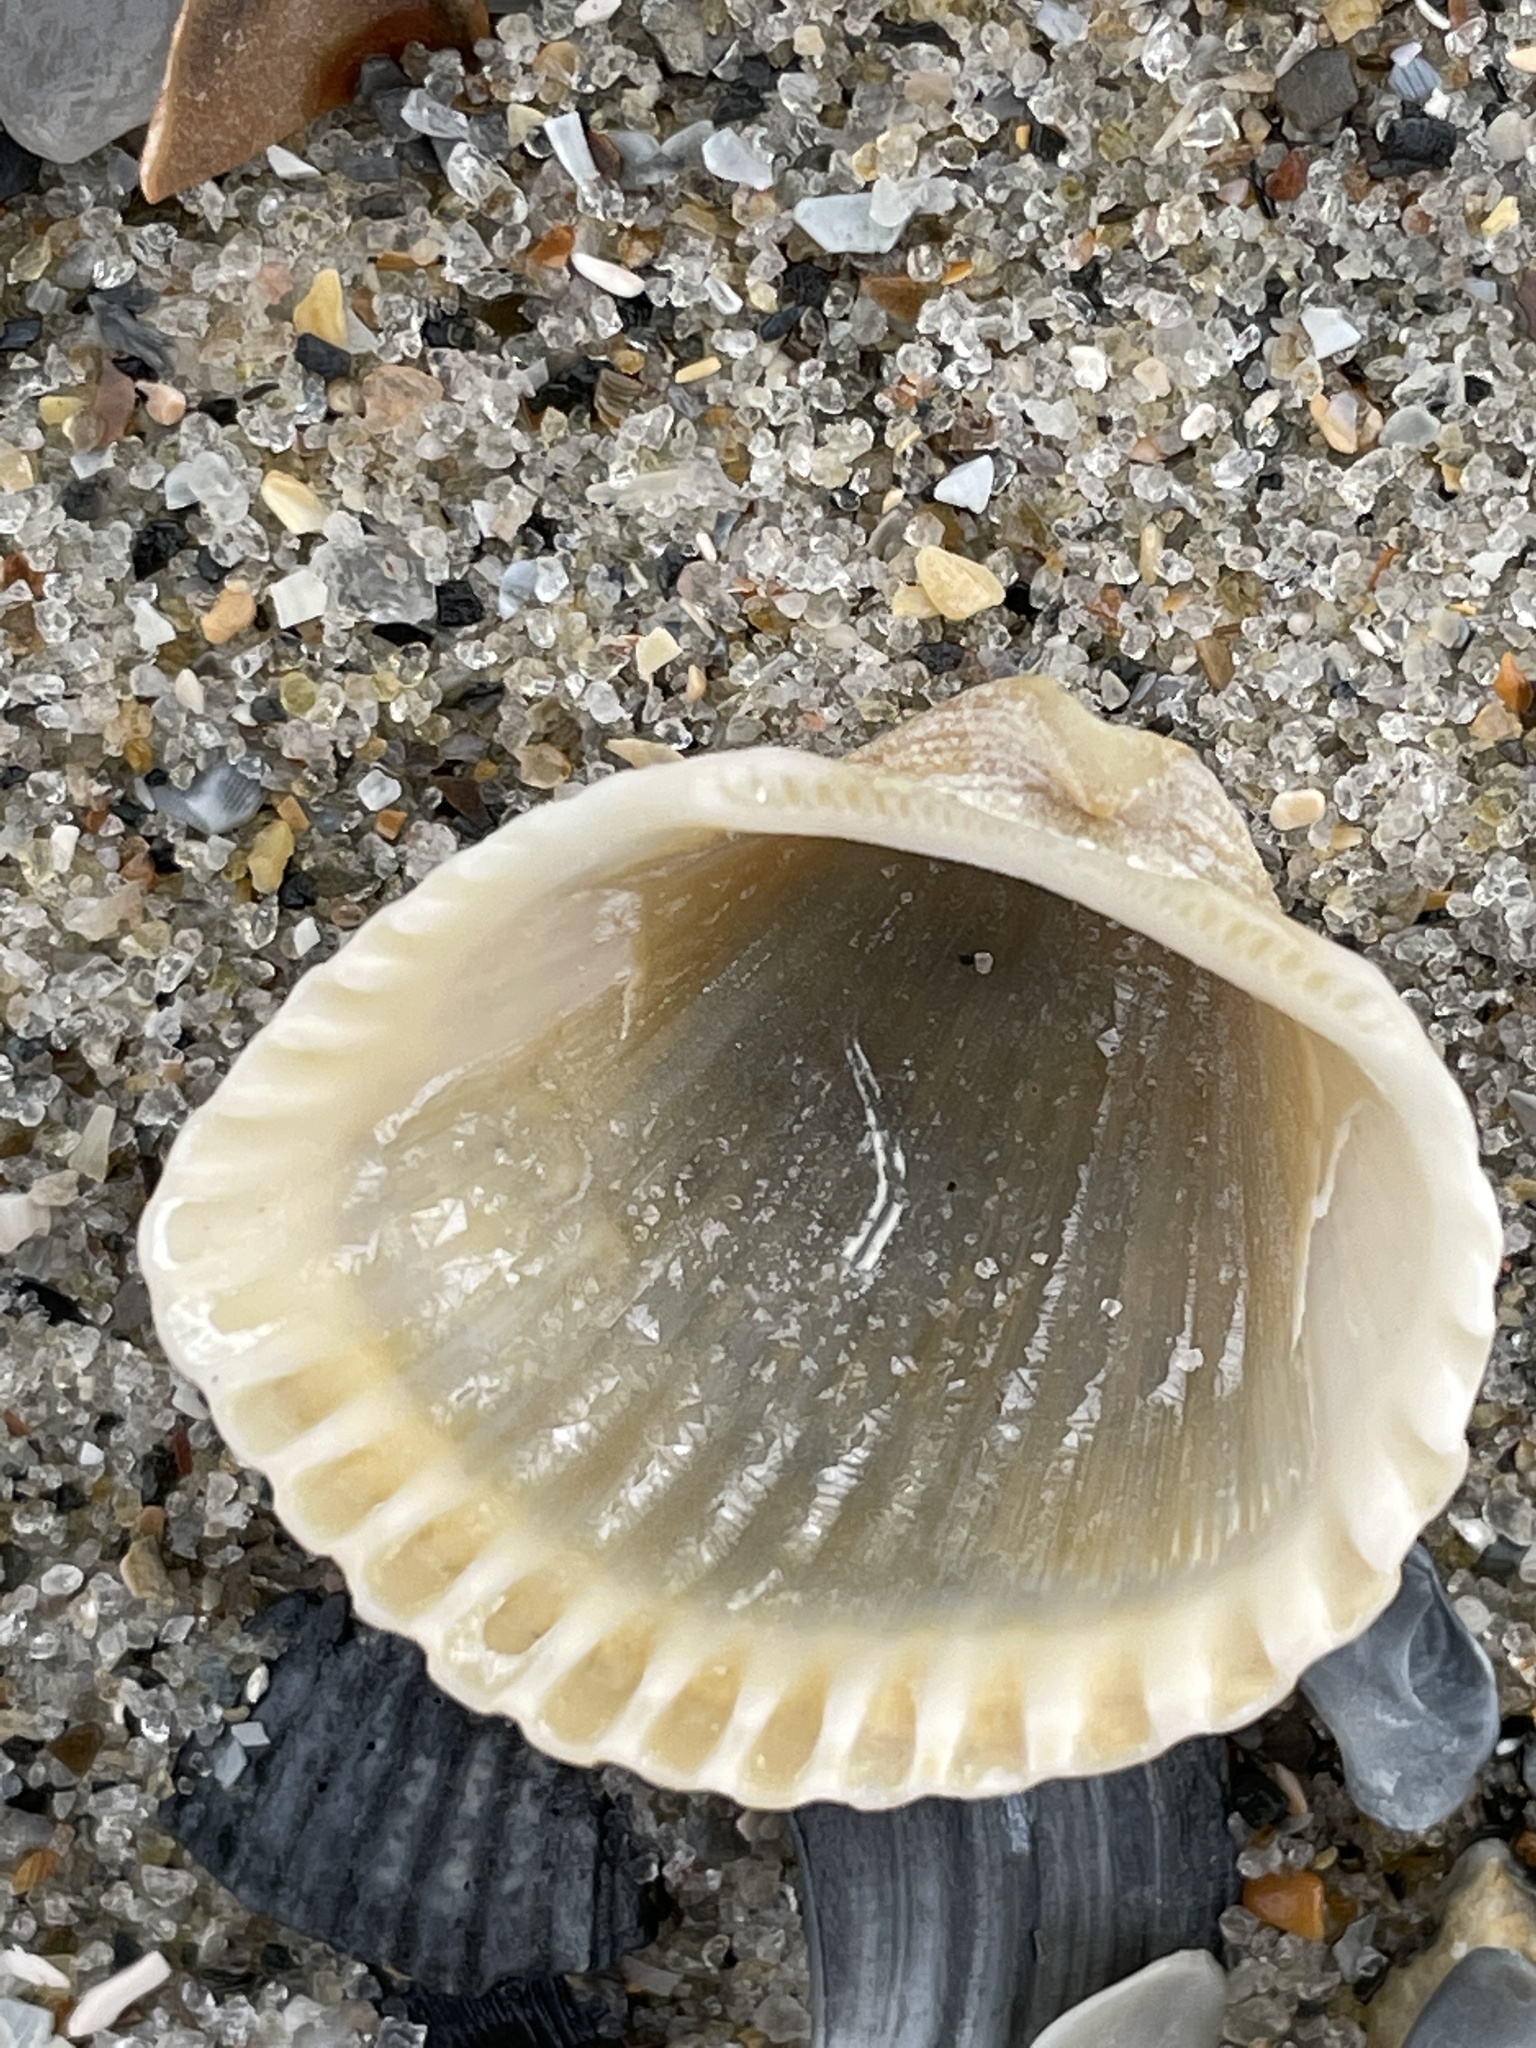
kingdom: Animalia
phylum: Mollusca
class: Bivalvia
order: Arcida
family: Arcidae
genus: Anadara
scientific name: Anadara brasiliana
